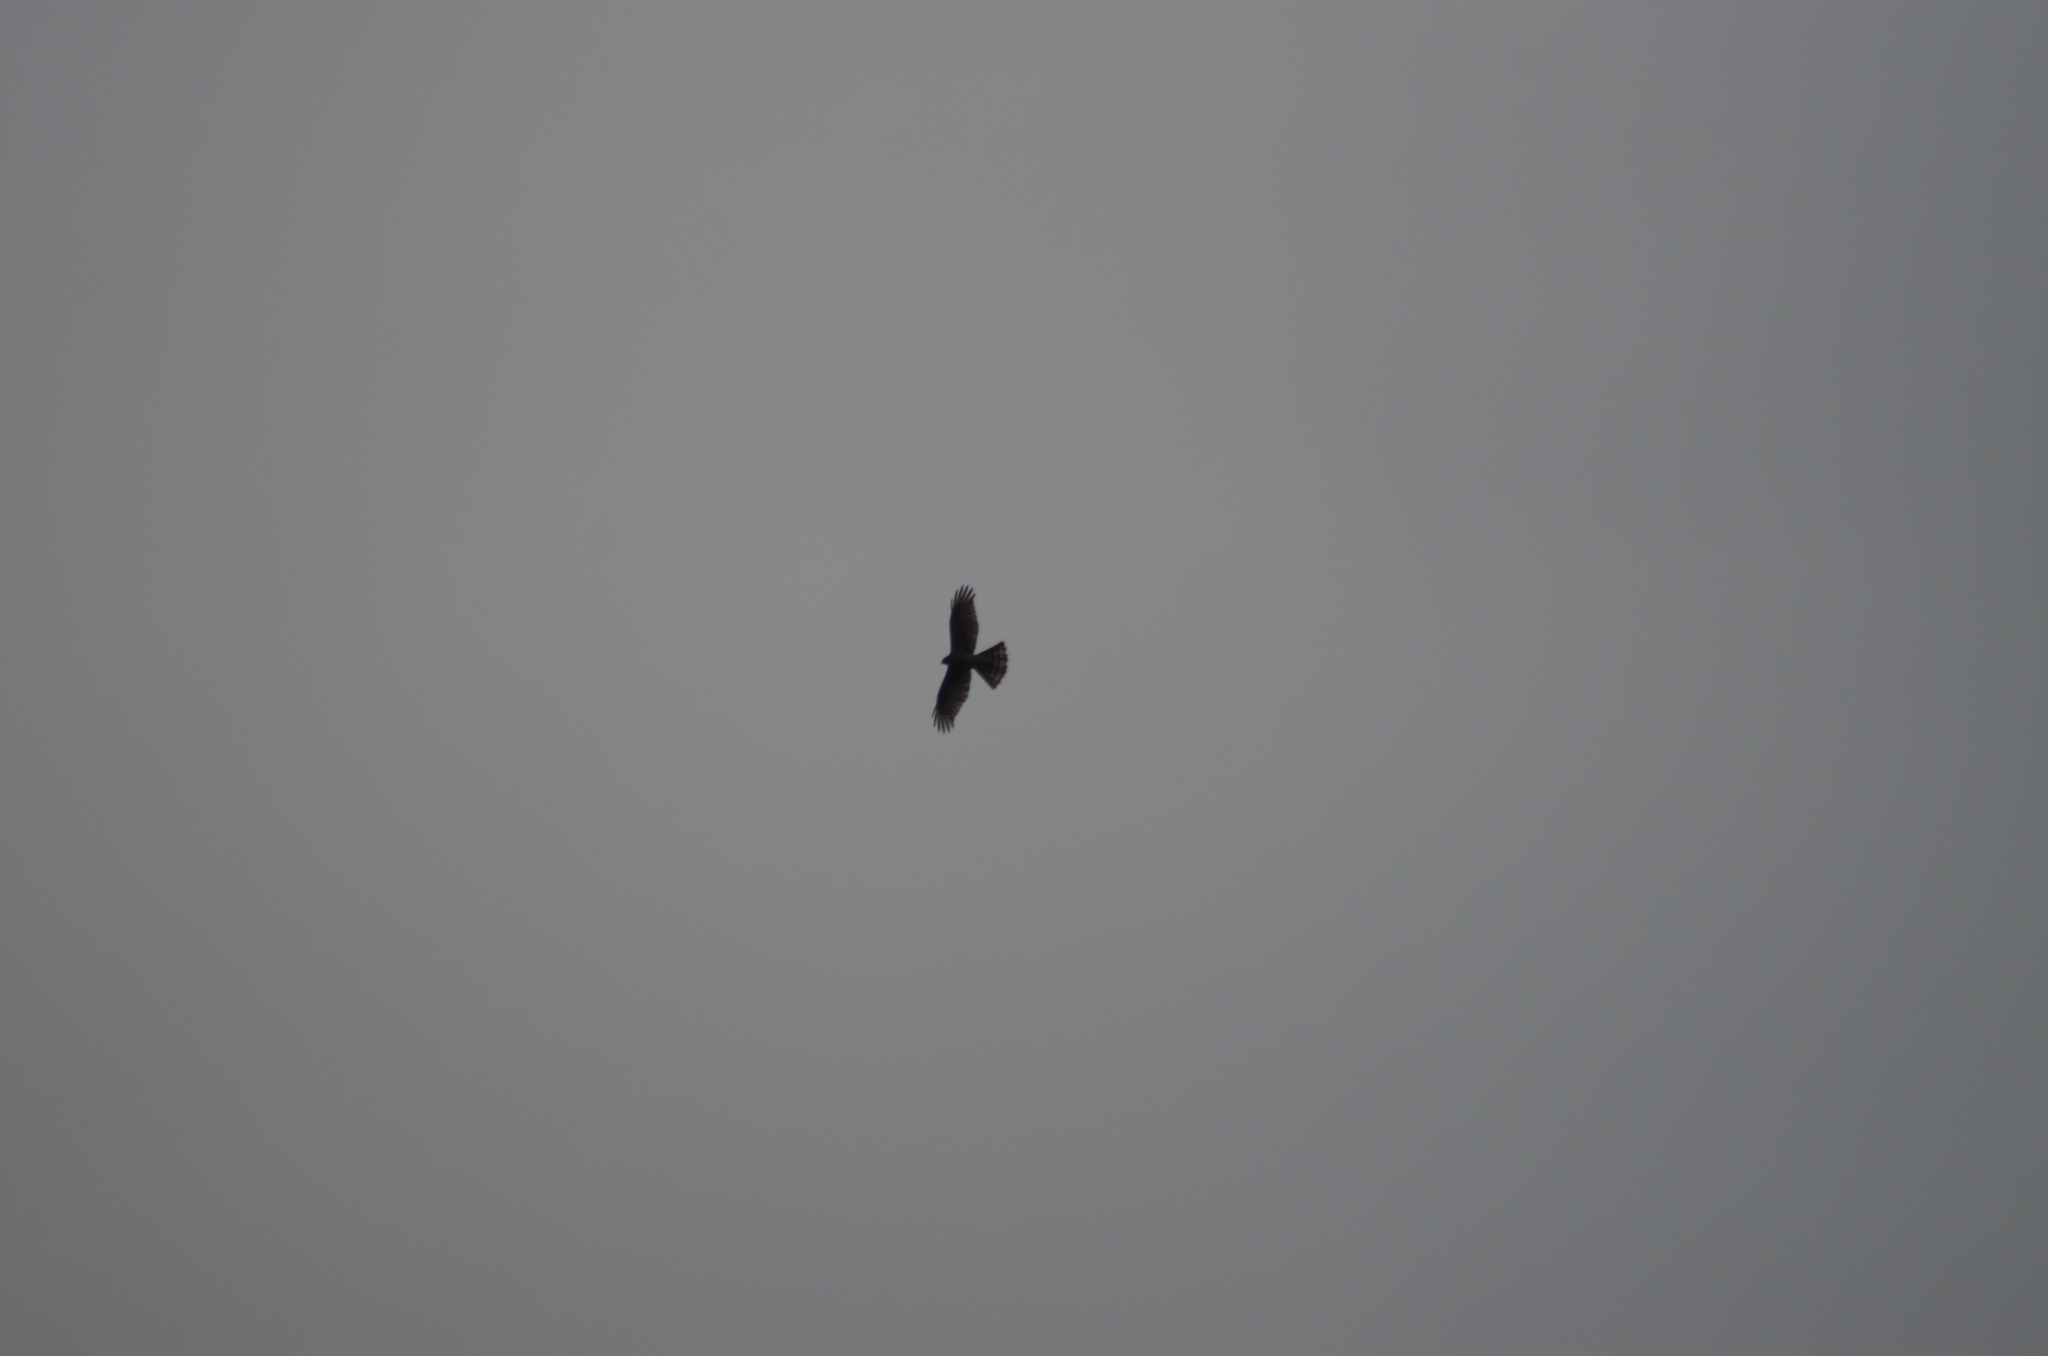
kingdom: Animalia
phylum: Chordata
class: Aves
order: Accipitriformes
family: Accipitridae
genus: Accipiter
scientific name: Accipiter nisus
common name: Eurasian sparrowhawk
